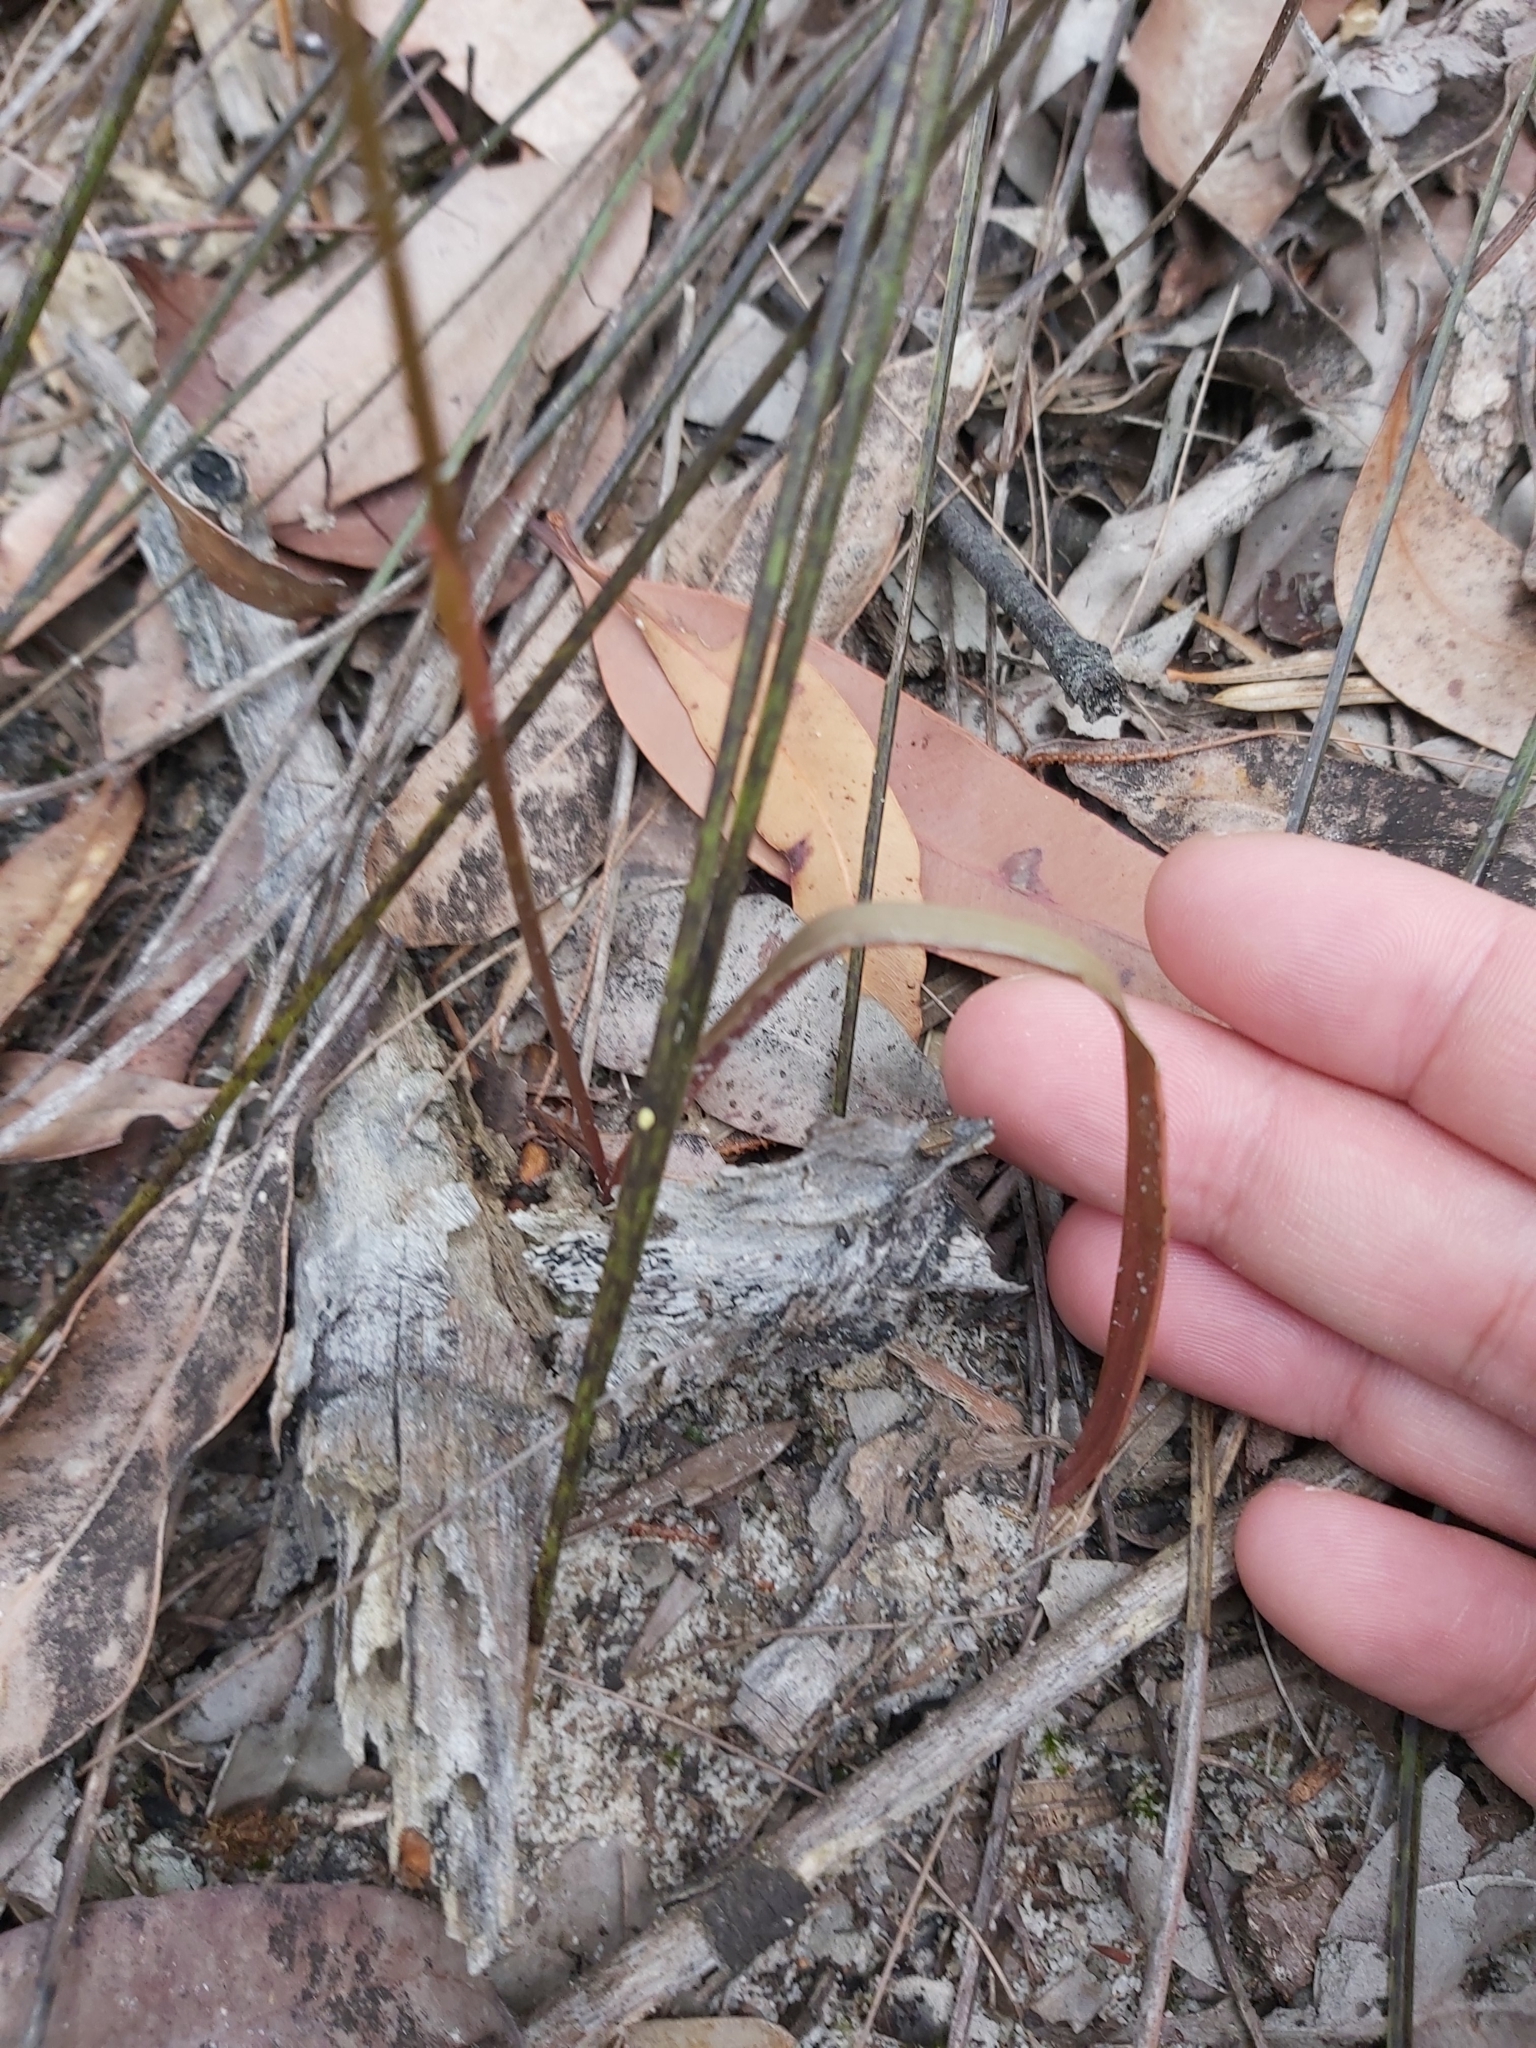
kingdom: Plantae
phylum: Tracheophyta
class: Liliopsida
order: Asparagales
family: Orchidaceae
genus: Caleana
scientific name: Caleana major
